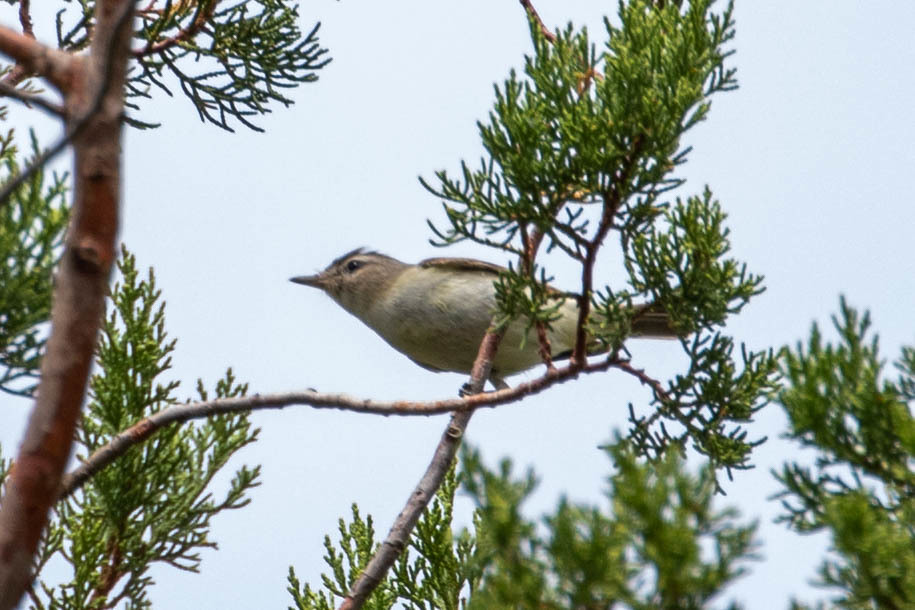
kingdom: Animalia
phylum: Chordata
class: Aves
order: Passeriformes
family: Vireonidae
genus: Vireo
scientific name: Vireo gilvus
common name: Warbling vireo
